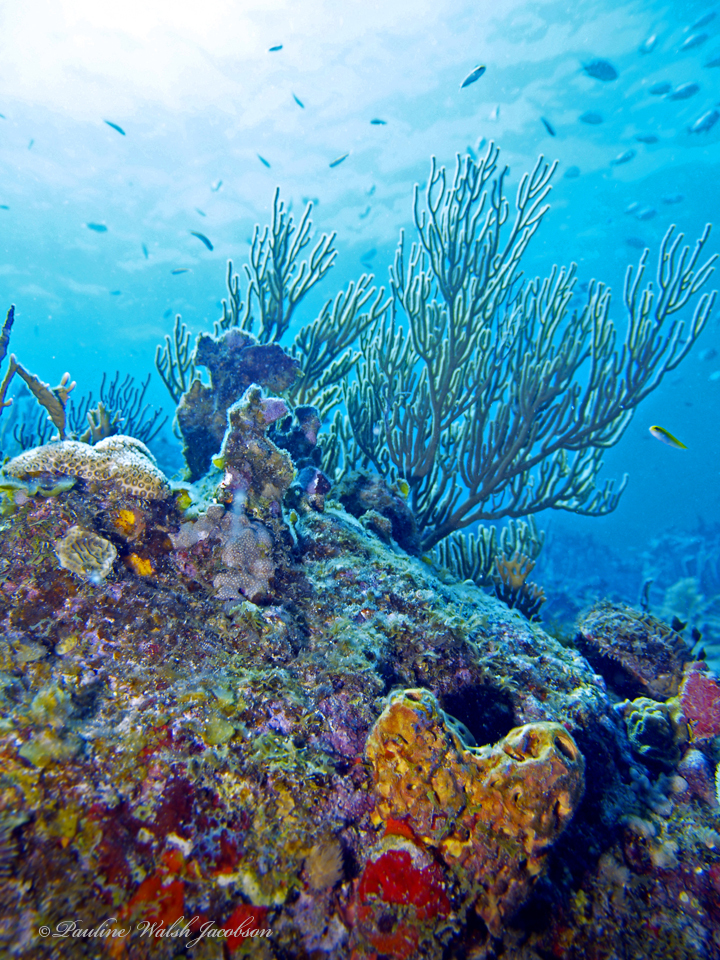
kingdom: Animalia
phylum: Porifera
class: Demospongiae
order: Verongiida
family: Aplysinidae
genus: Aplysina
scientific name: Aplysina lacunosa
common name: Convoluted barrel sponge
